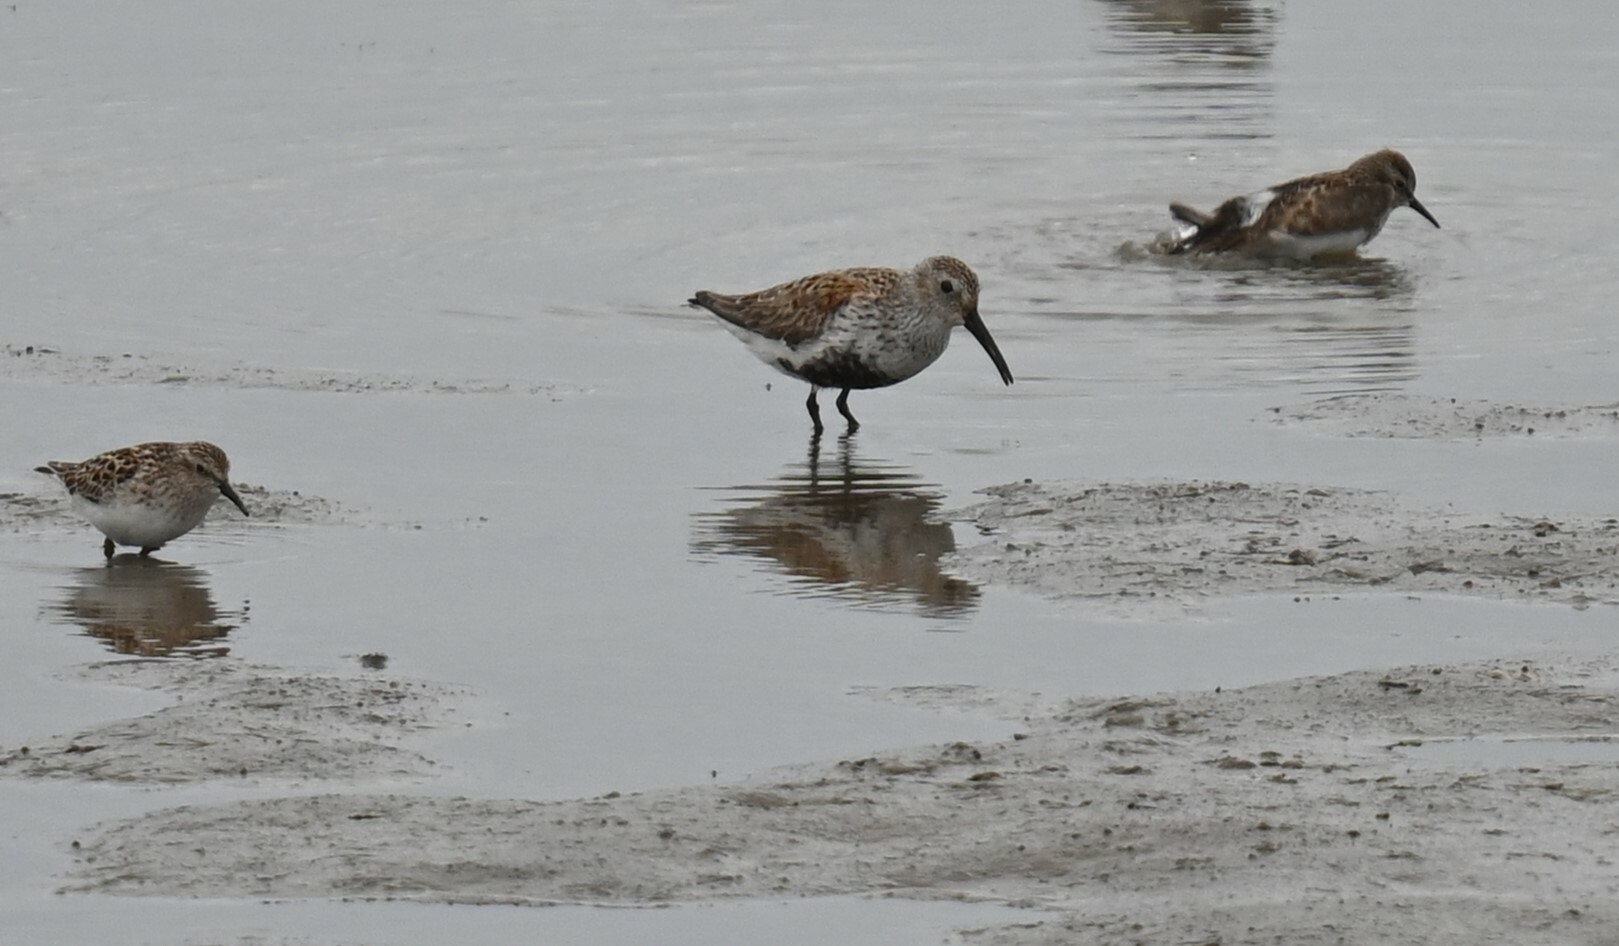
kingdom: Animalia
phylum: Chordata
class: Aves
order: Charadriiformes
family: Scolopacidae
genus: Calidris
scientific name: Calidris alpina
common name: Dunlin
